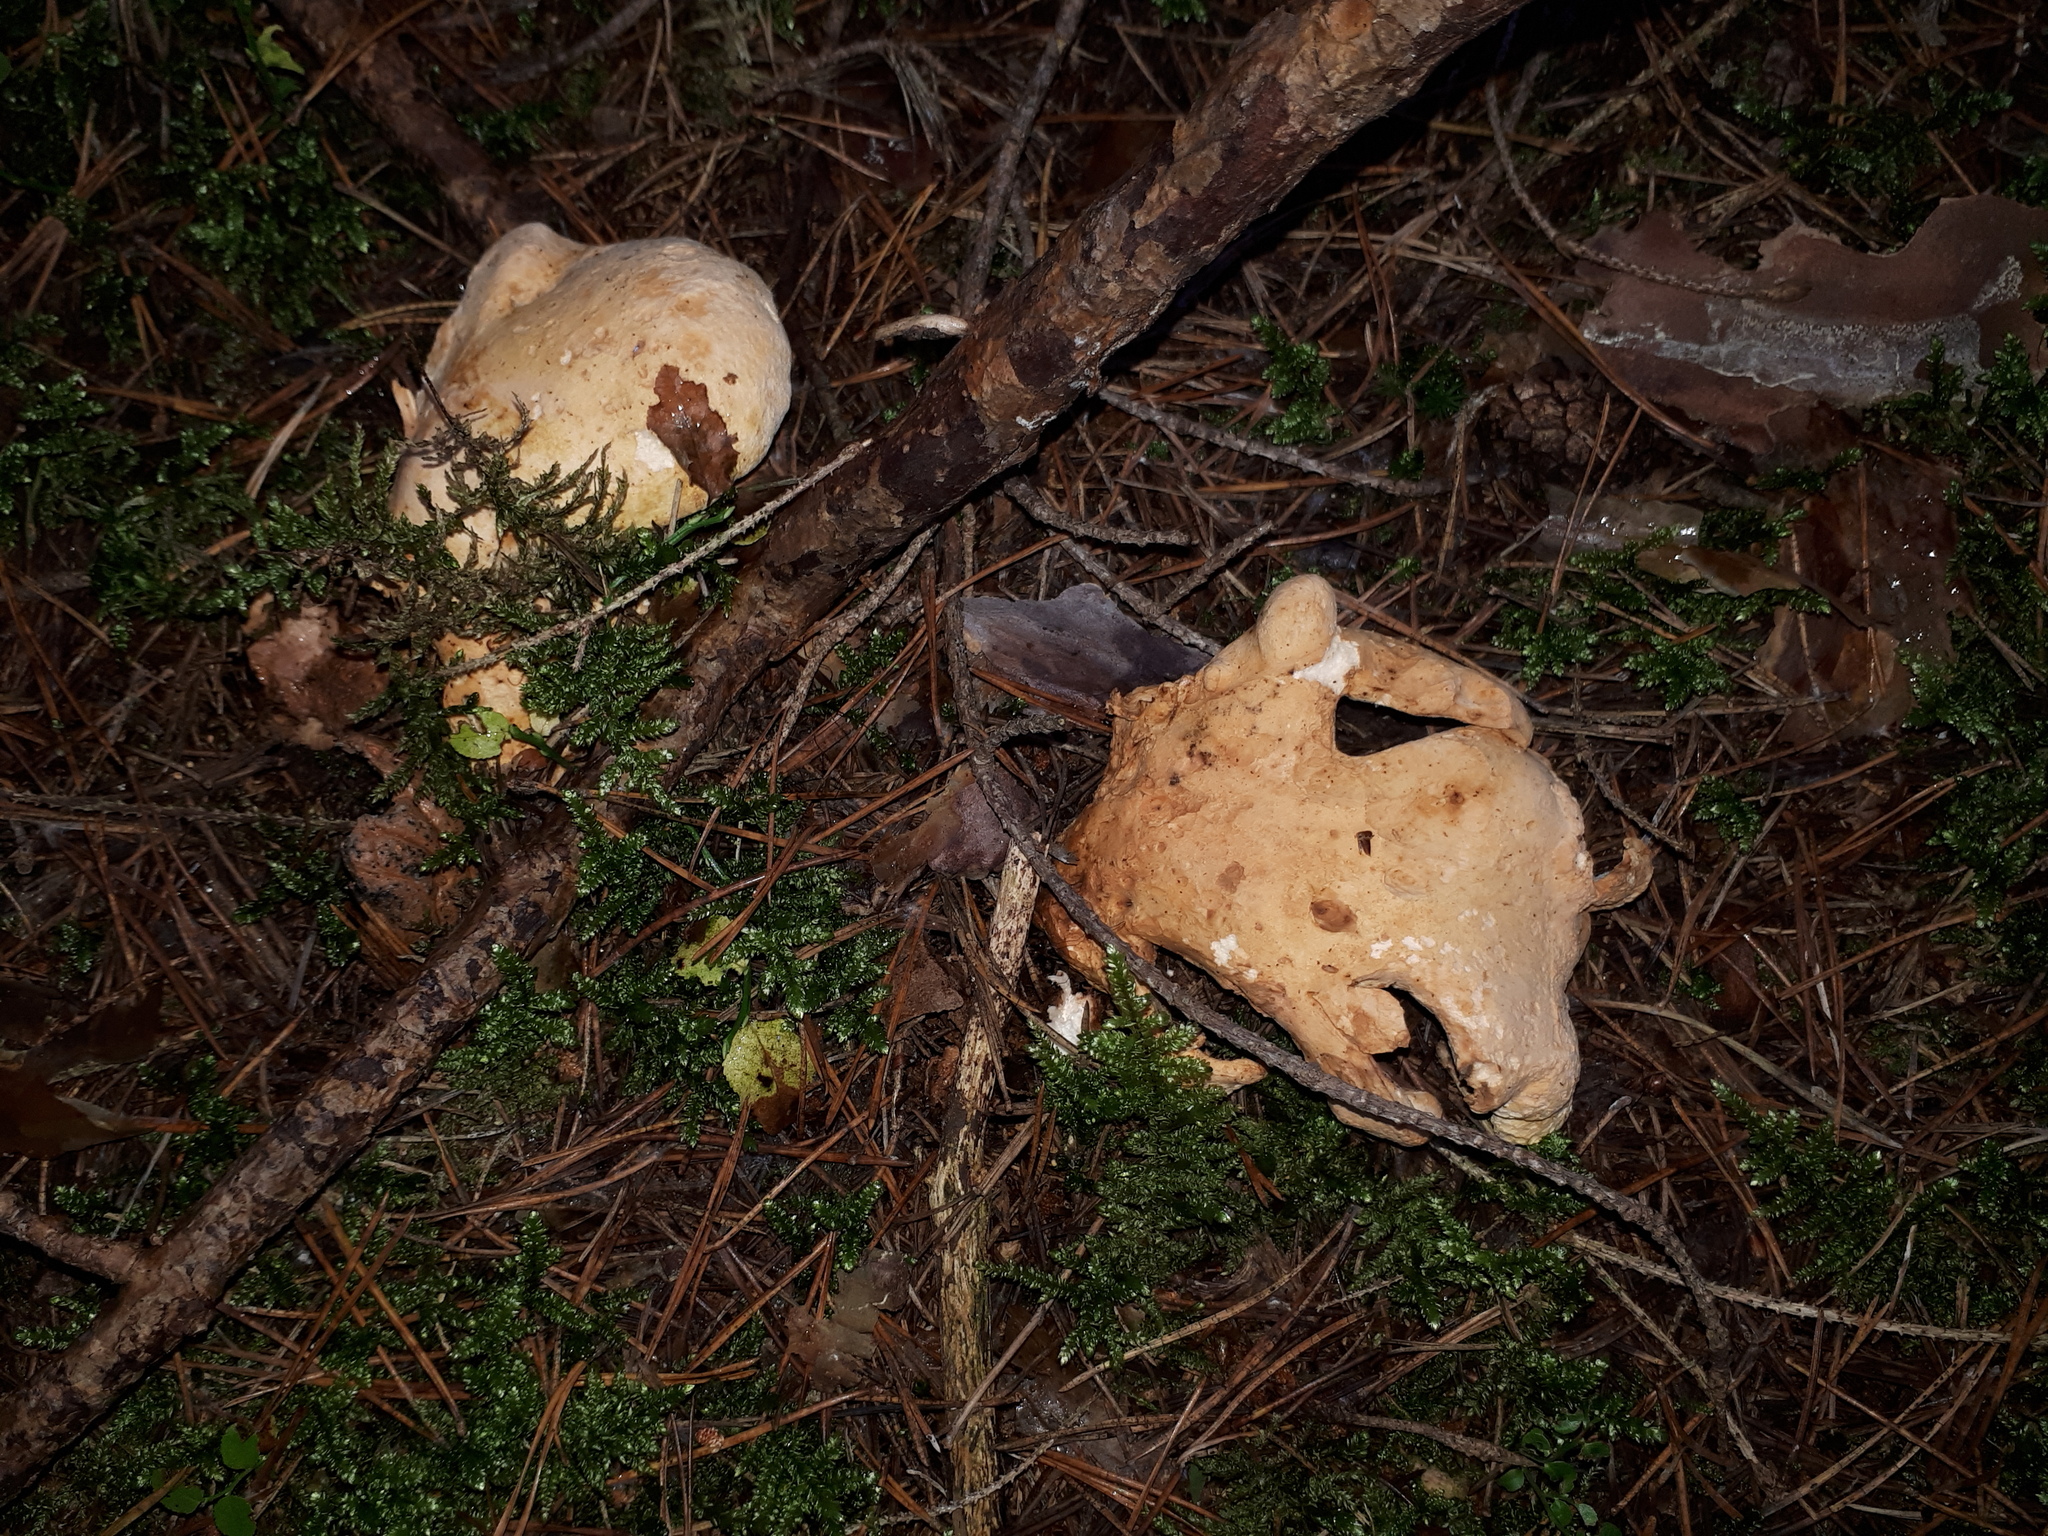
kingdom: Fungi
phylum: Basidiomycota
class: Agaricomycetes
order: Russulales
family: Albatrellaceae
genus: Albatrellopsis
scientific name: Albatrellopsis confluens
